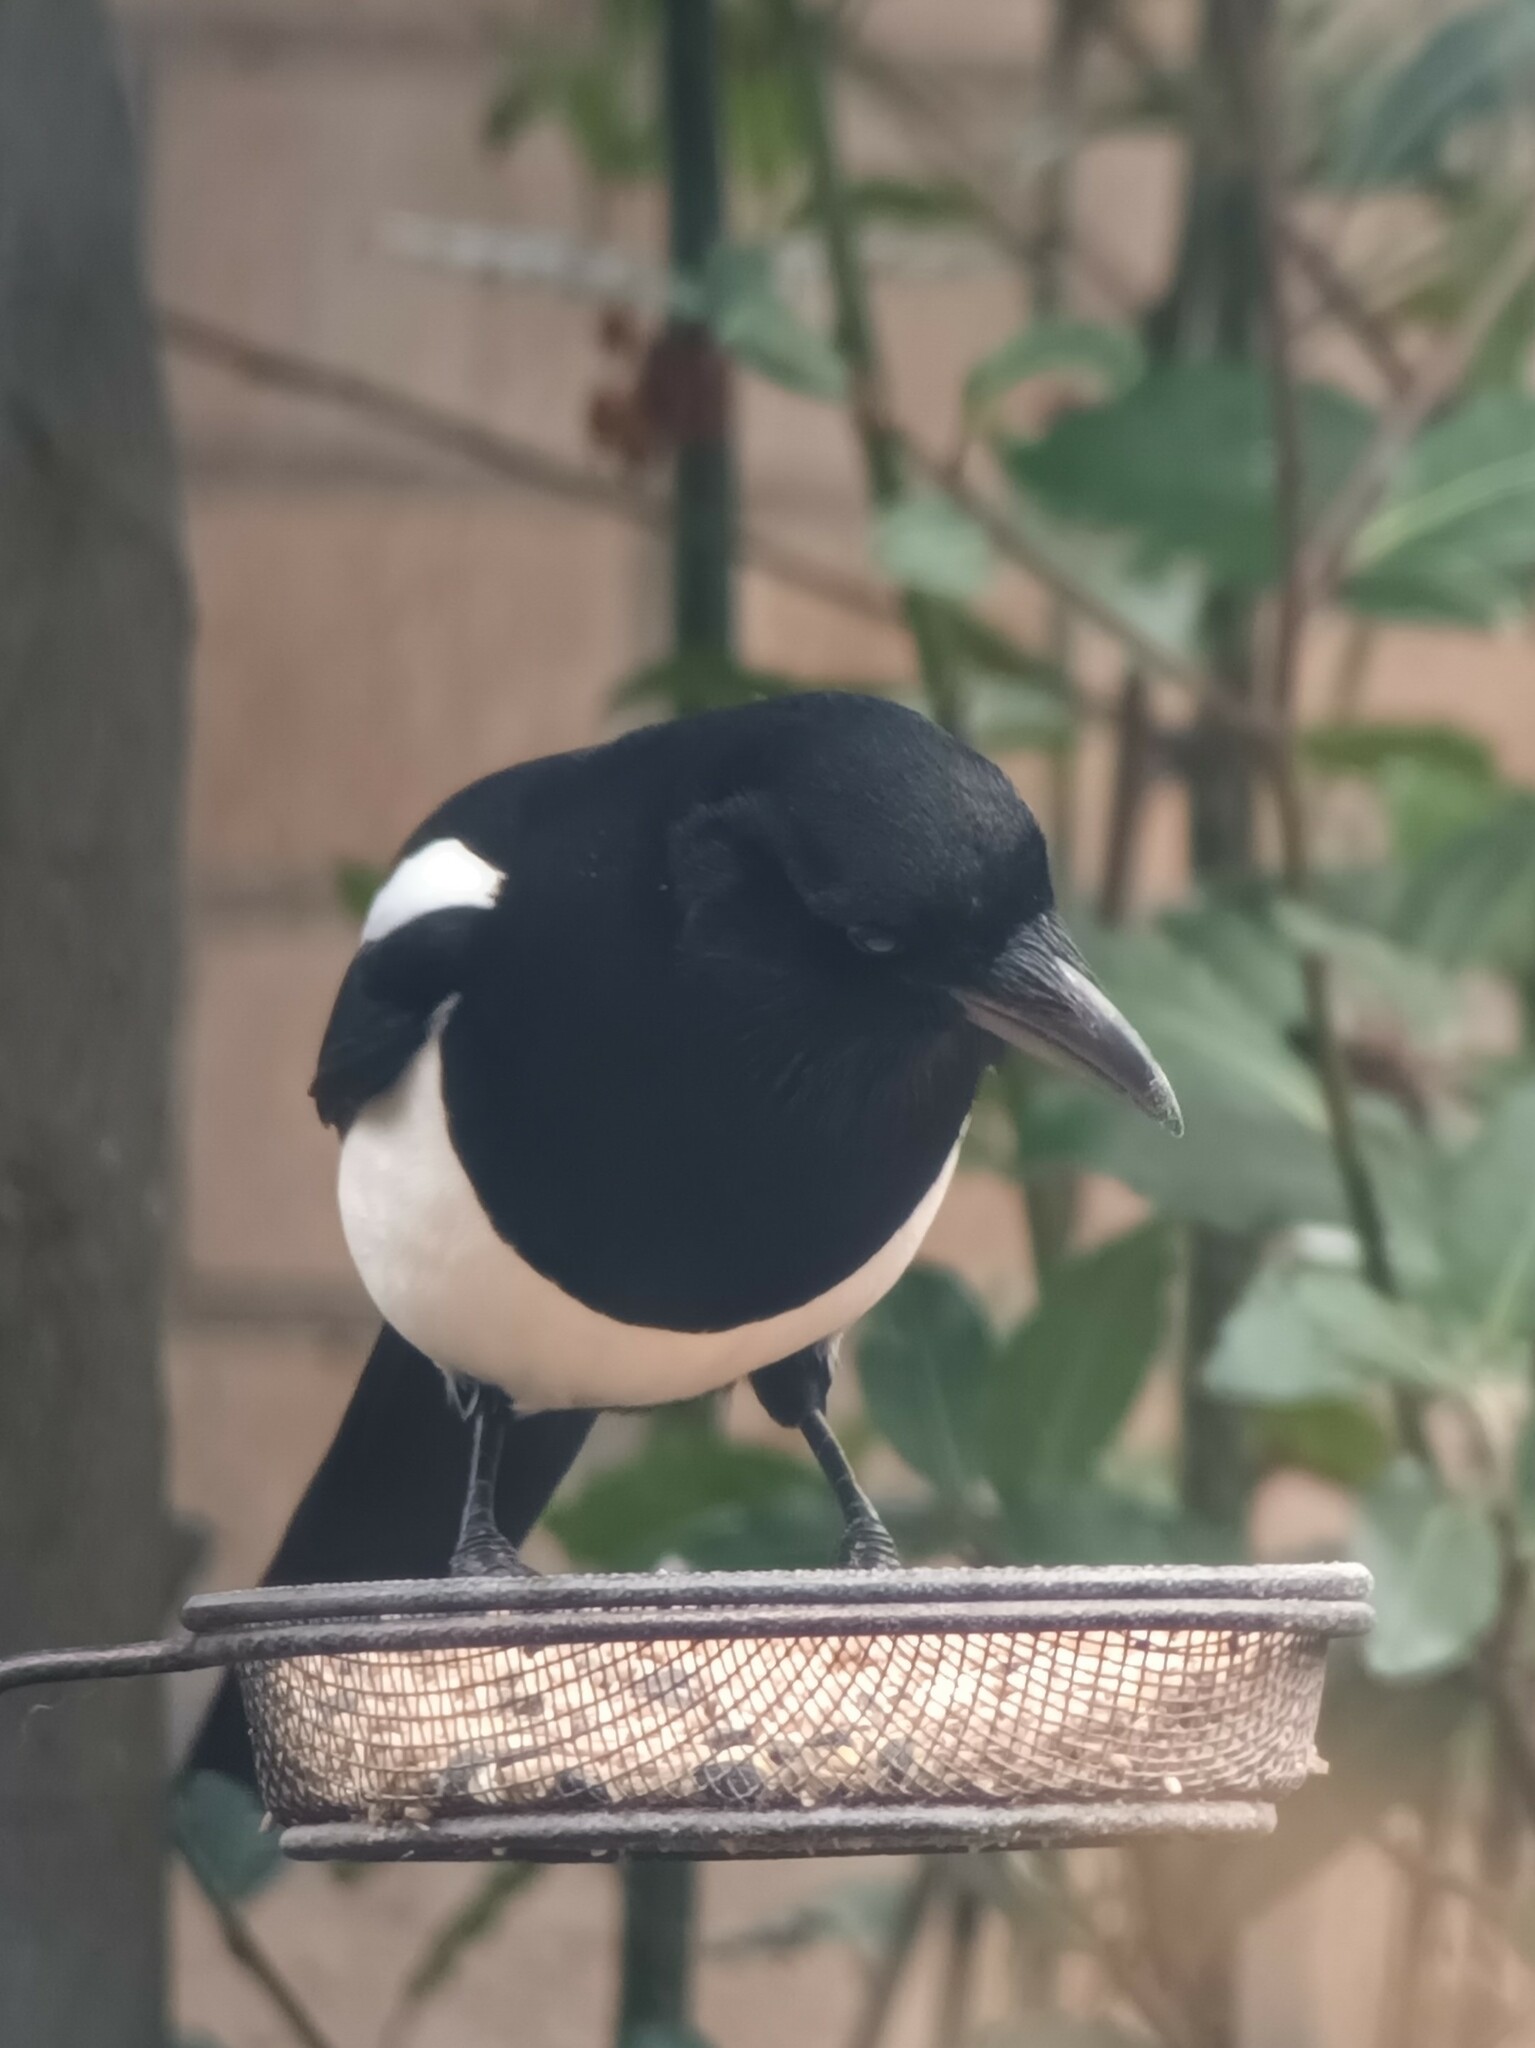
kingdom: Animalia
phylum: Chordata
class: Aves
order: Passeriformes
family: Corvidae
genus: Pica
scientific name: Pica pica
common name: Eurasian magpie
